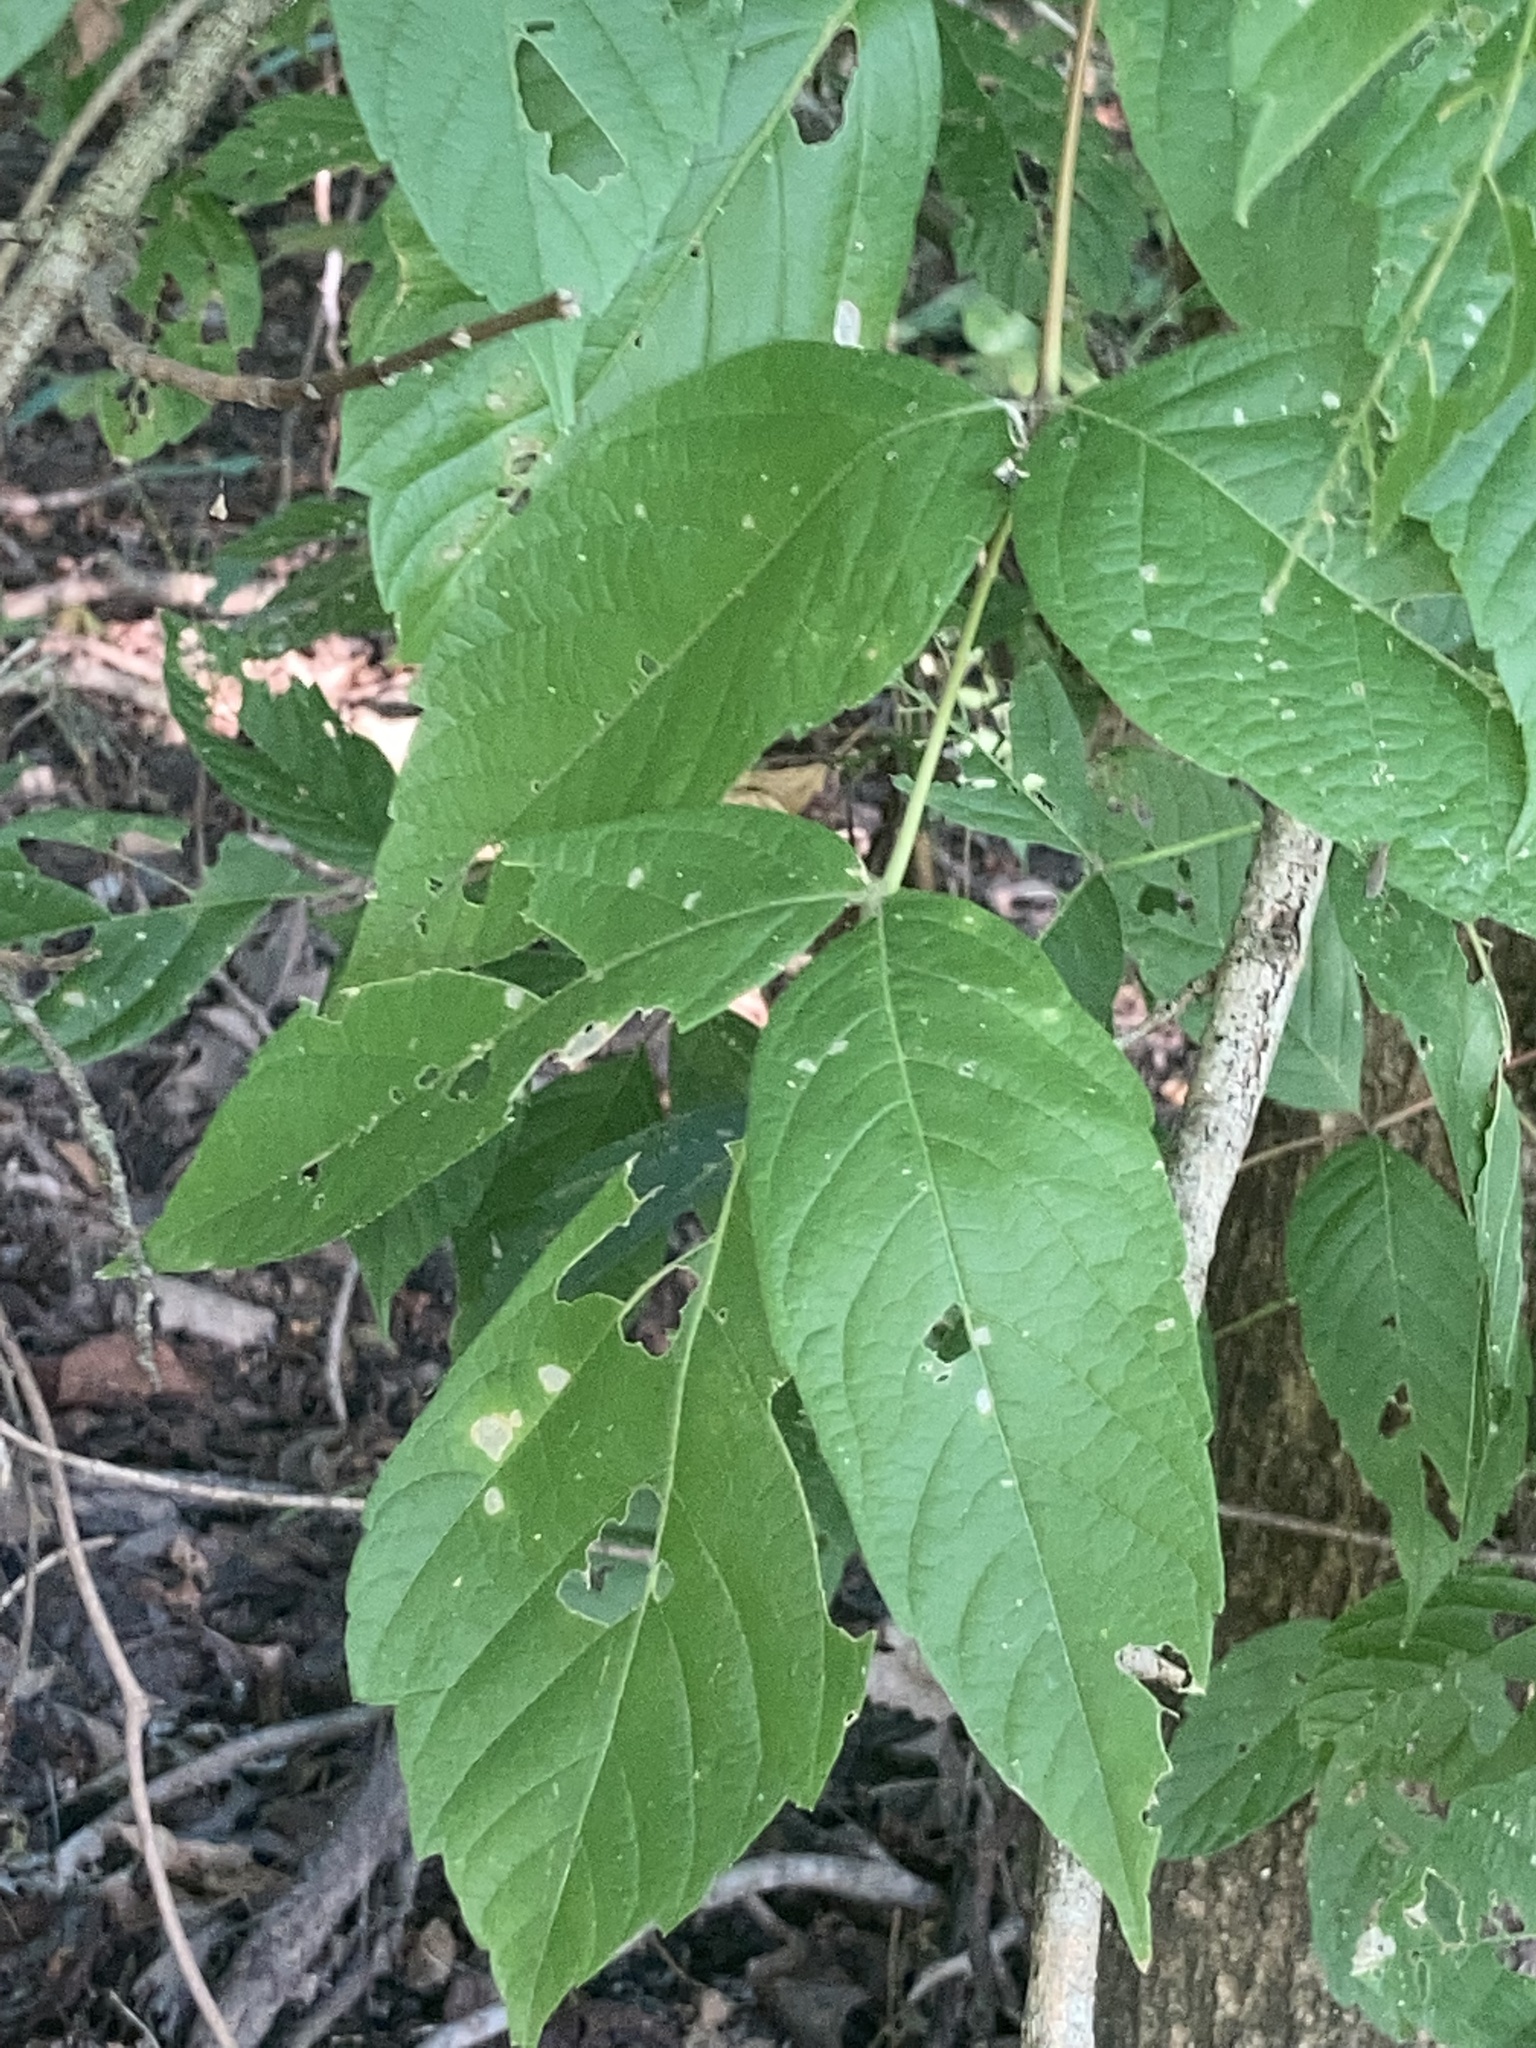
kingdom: Plantae
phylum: Tracheophyta
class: Magnoliopsida
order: Sapindales
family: Sapindaceae
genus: Acer
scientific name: Acer negundo
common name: Ashleaf maple
